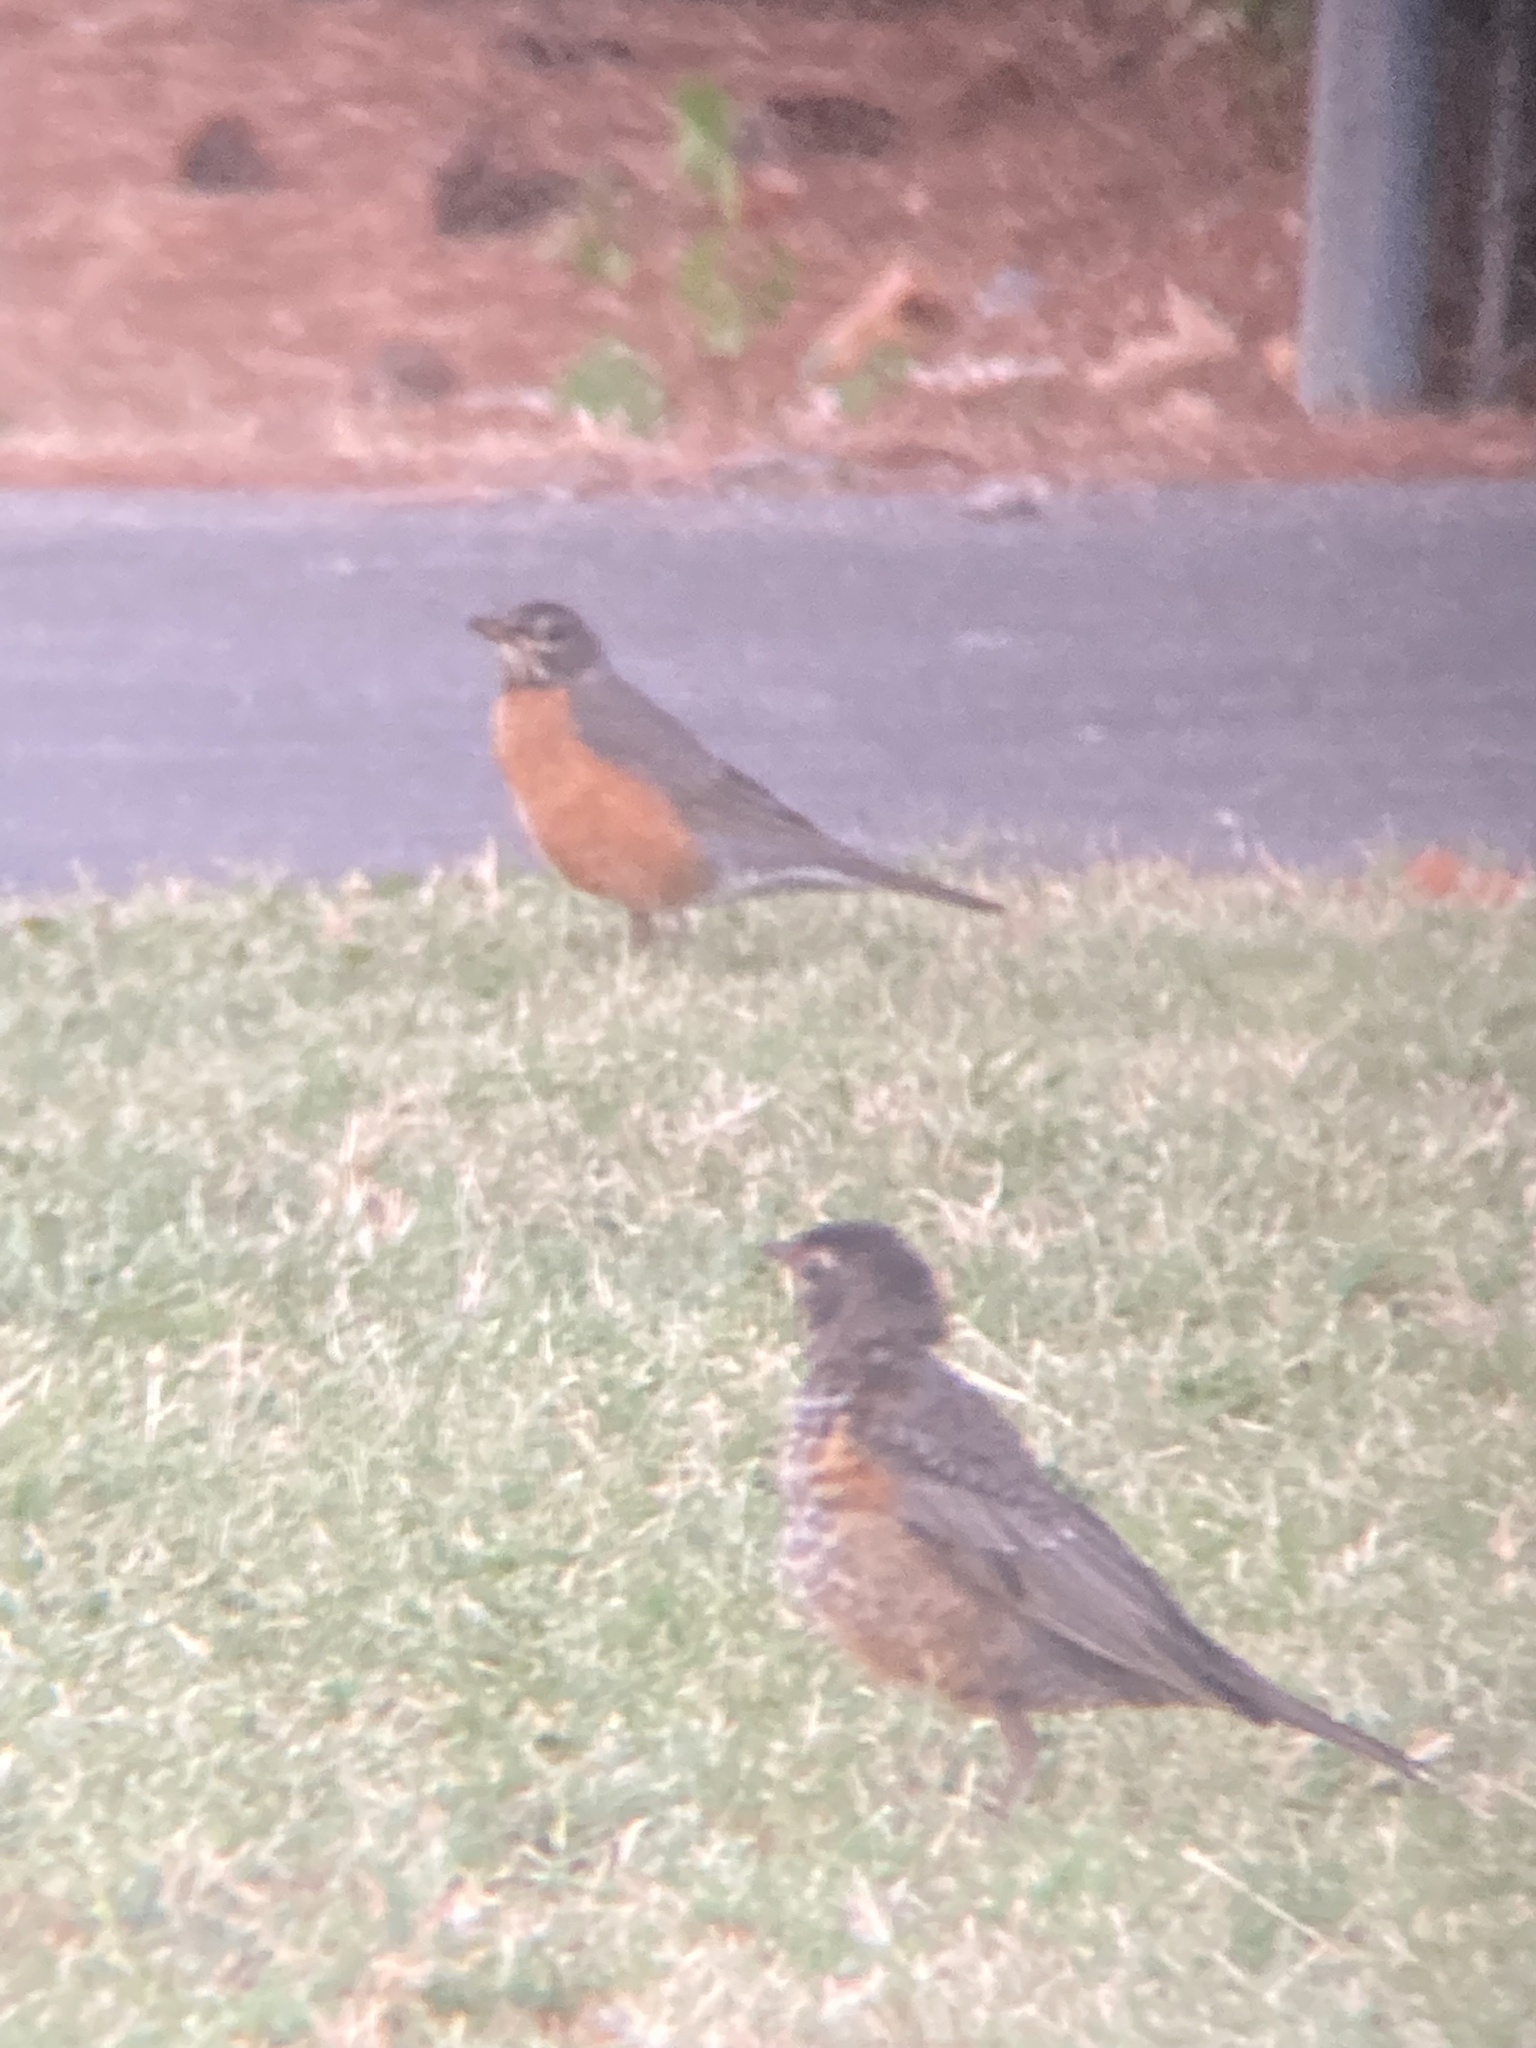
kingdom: Animalia
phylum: Chordata
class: Aves
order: Passeriformes
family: Turdidae
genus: Turdus
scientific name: Turdus migratorius
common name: American robin
